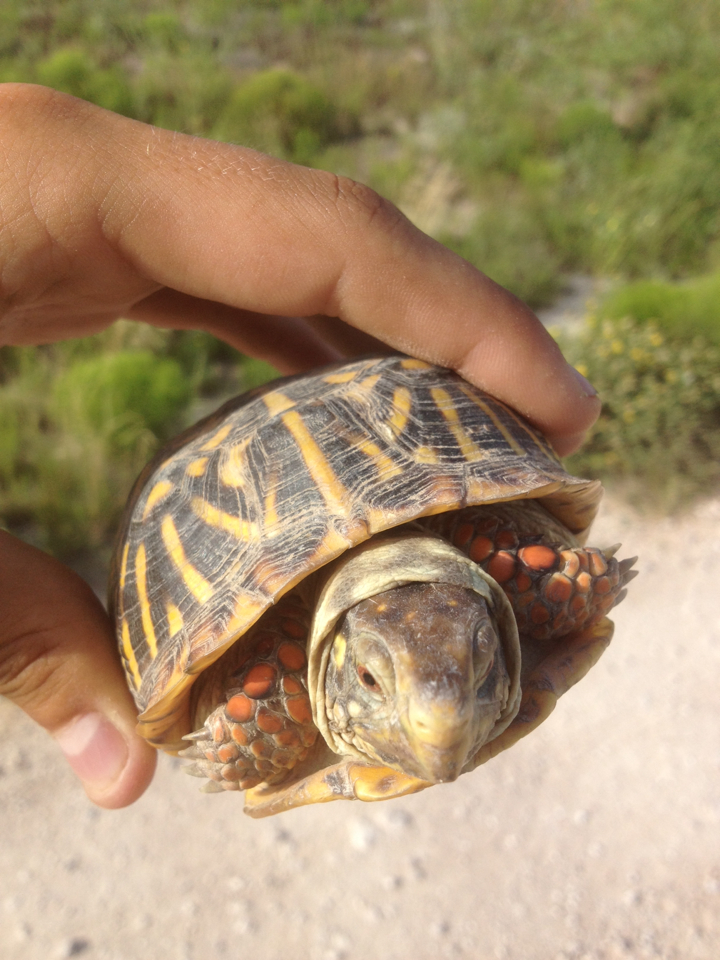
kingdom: Animalia
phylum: Chordata
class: Testudines
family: Emydidae
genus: Terrapene
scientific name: Terrapene ornata
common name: Western box turtle
